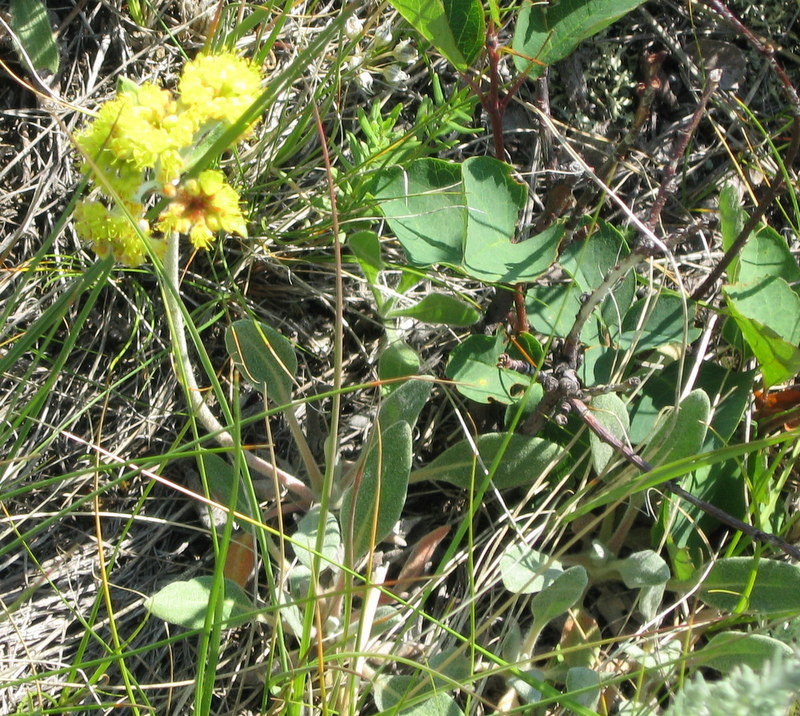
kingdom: Plantae
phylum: Tracheophyta
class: Magnoliopsida
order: Caryophyllales
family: Polygonaceae
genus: Eriogonum
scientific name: Eriogonum flavum
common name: Alpine golden wild buckwheat
